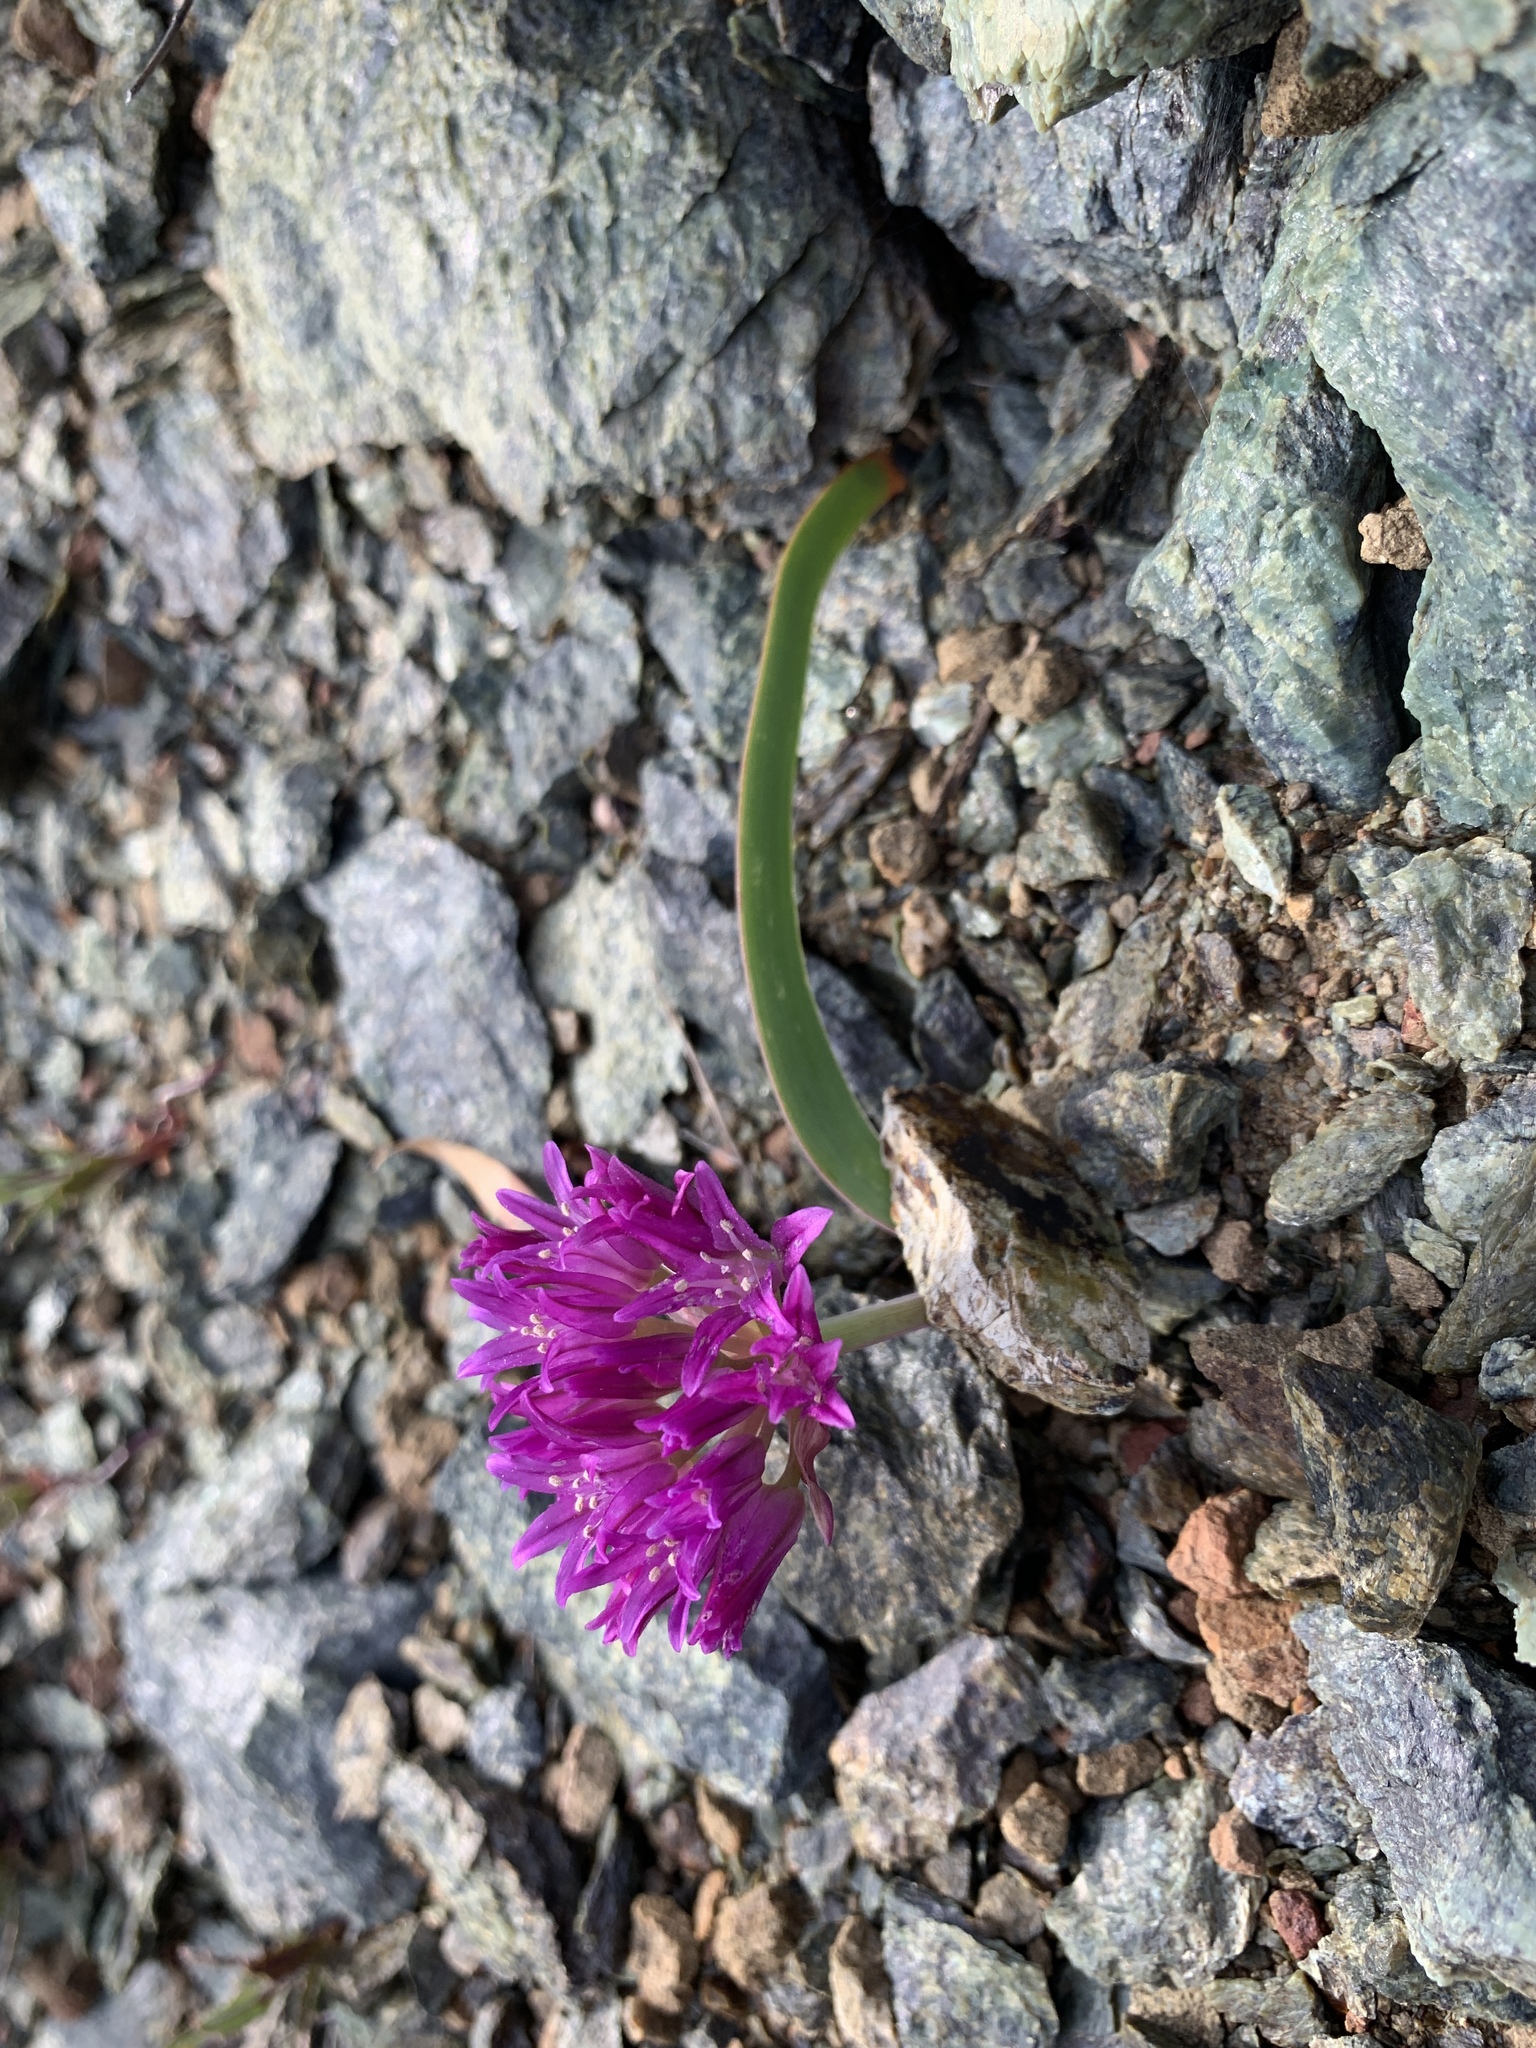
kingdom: Plantae
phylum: Tracheophyta
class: Liliopsida
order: Asparagales
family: Amaryllidaceae
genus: Allium
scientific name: Allium falcifolium
